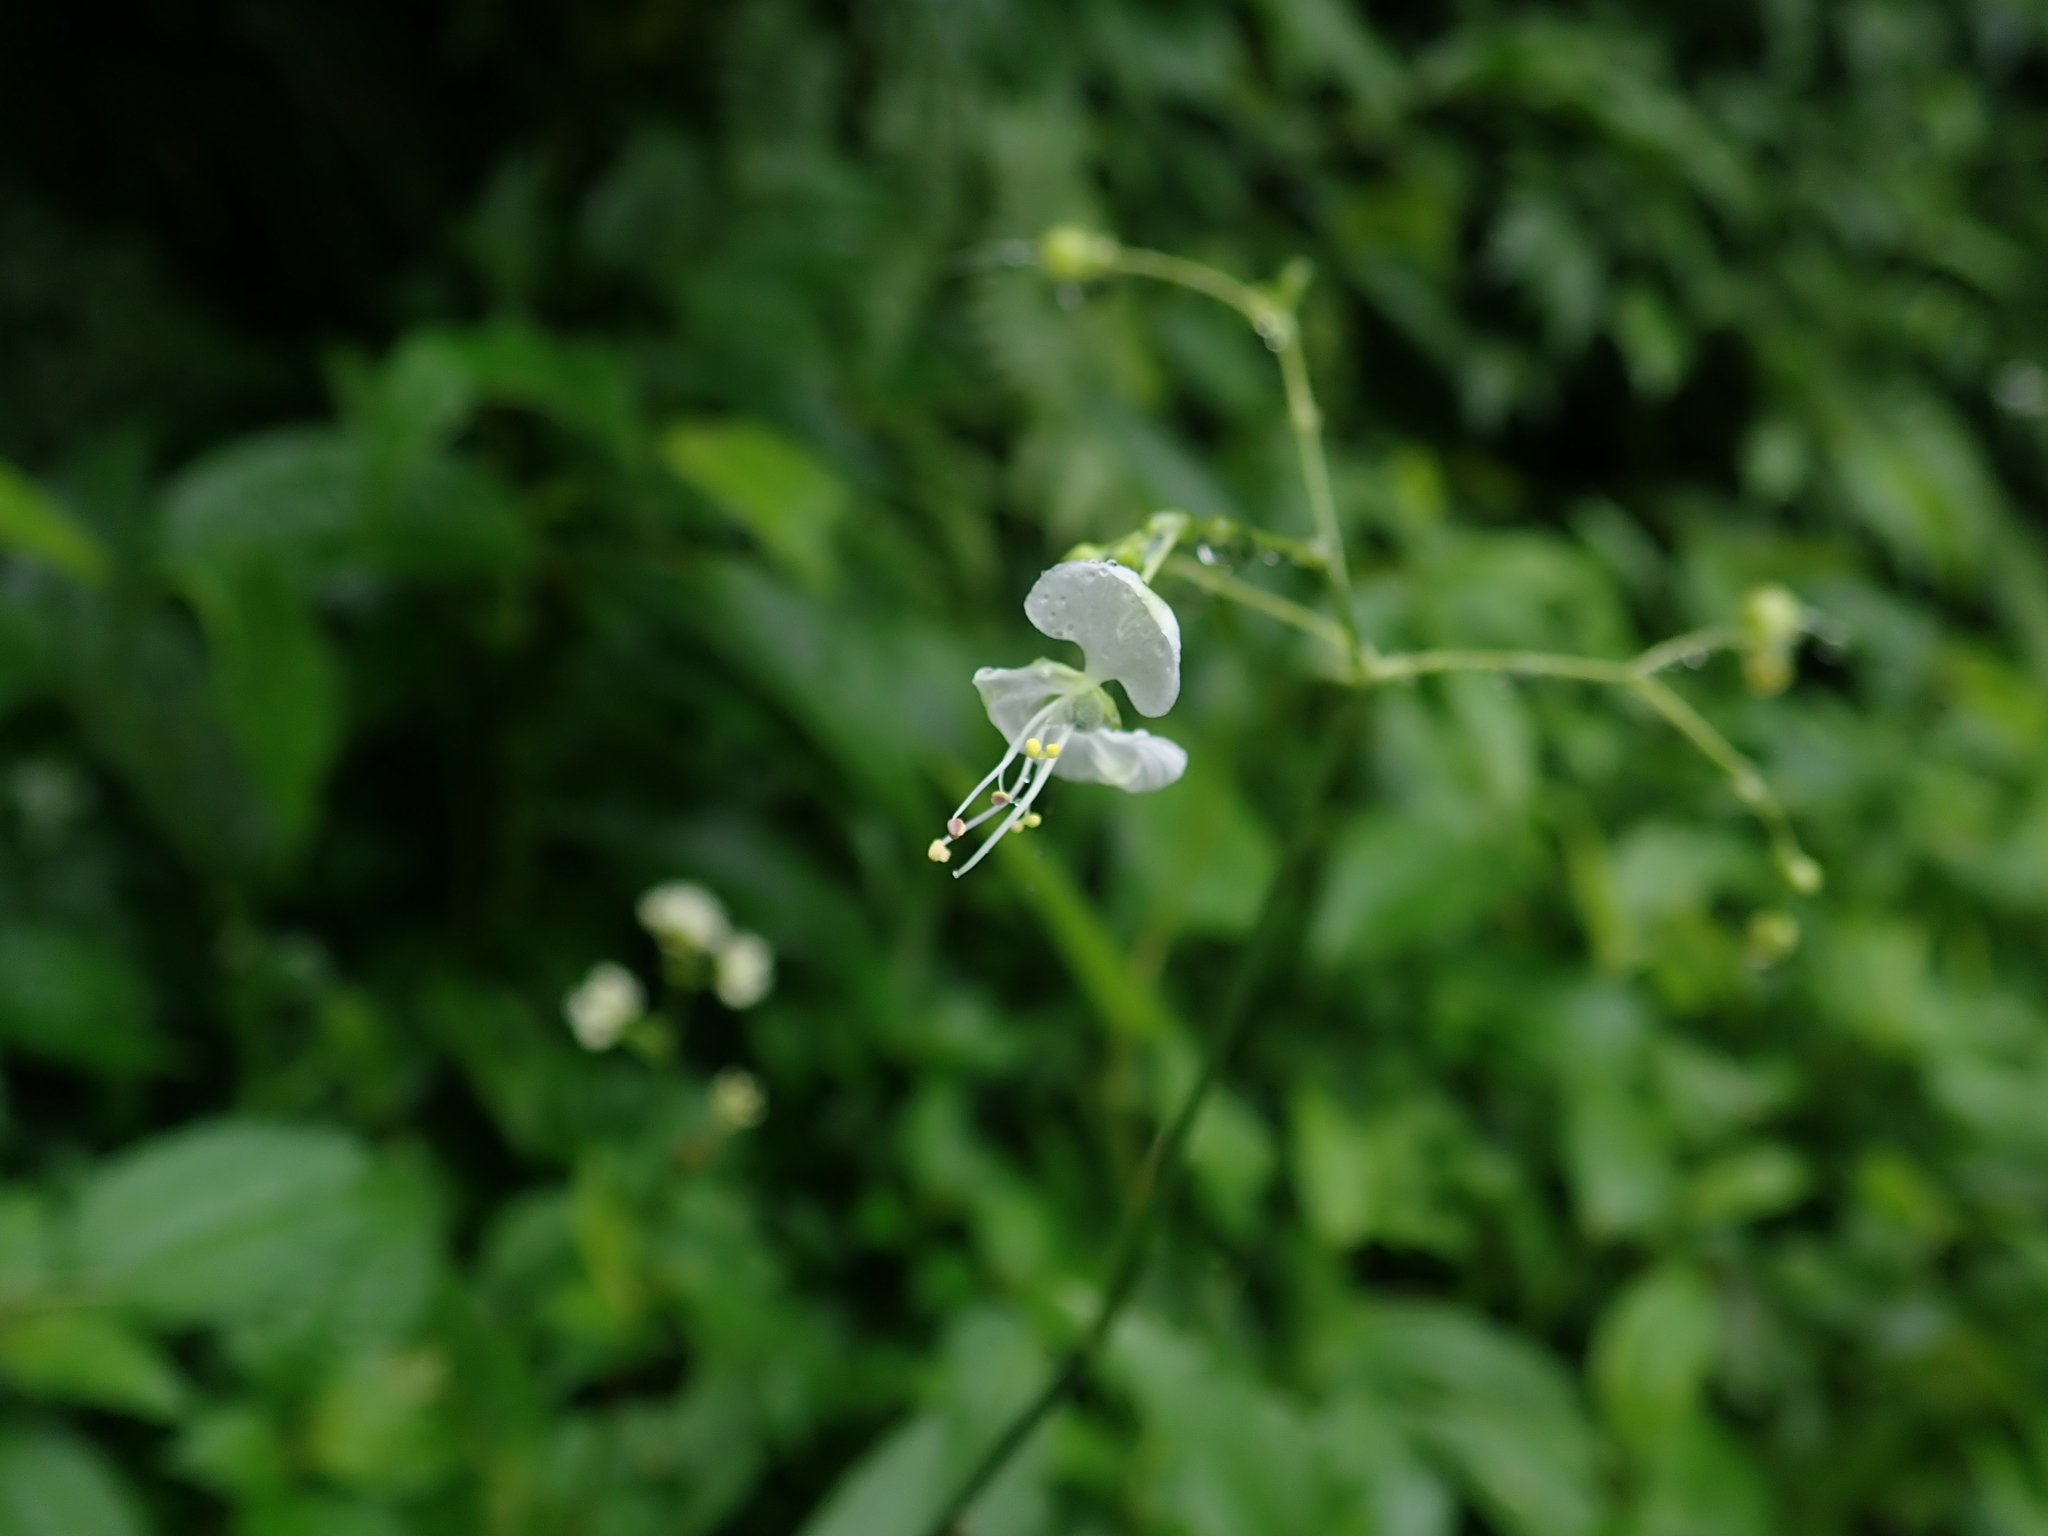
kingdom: Plantae
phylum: Tracheophyta
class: Liliopsida
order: Commelinales
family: Commelinaceae
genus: Rhopalephora
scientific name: Rhopalephora scaberrima
